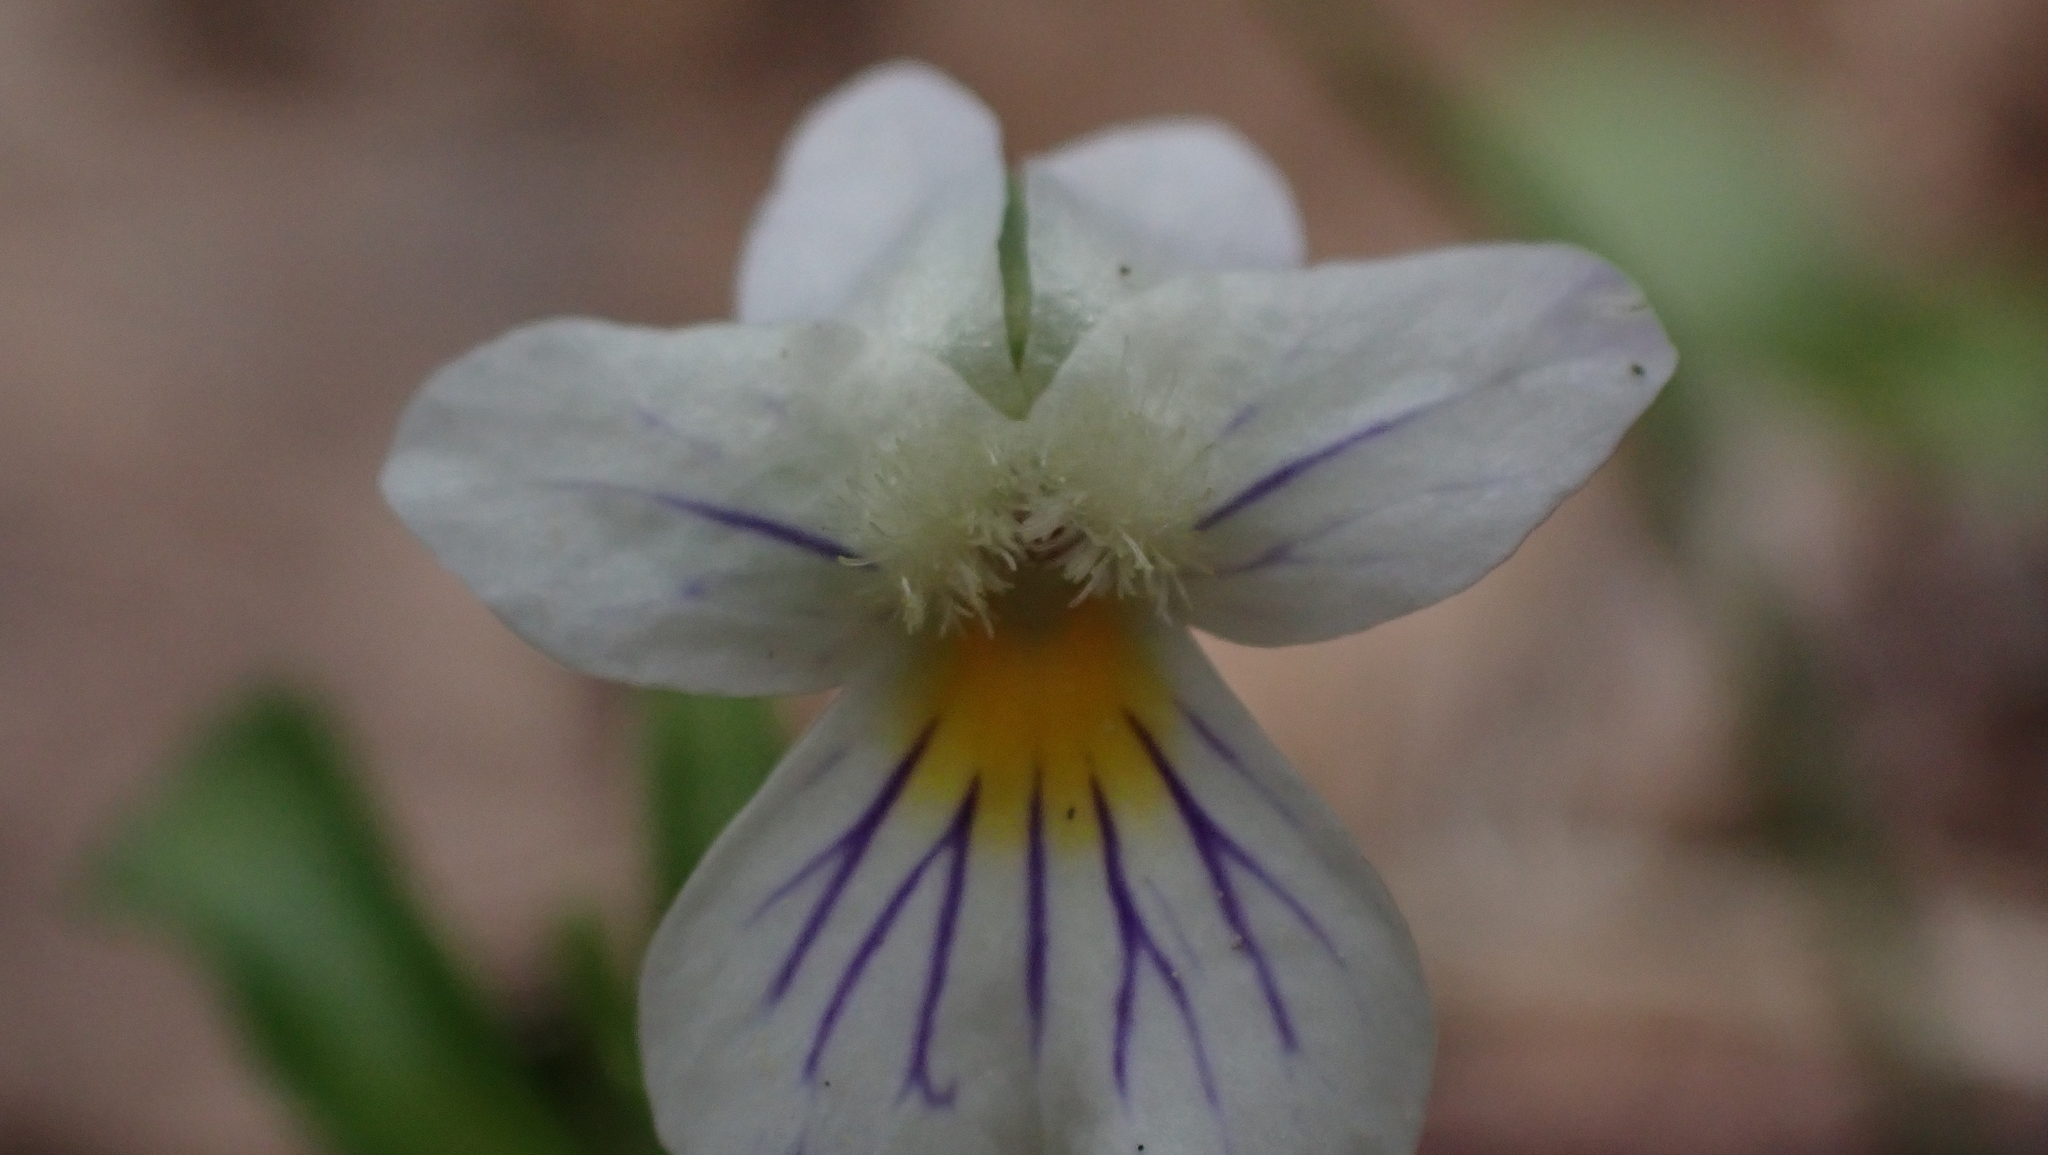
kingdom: Plantae
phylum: Tracheophyta
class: Magnoliopsida
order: Malpighiales
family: Violaceae
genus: Viola
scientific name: Viola rafinesquei
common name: American field pansy
